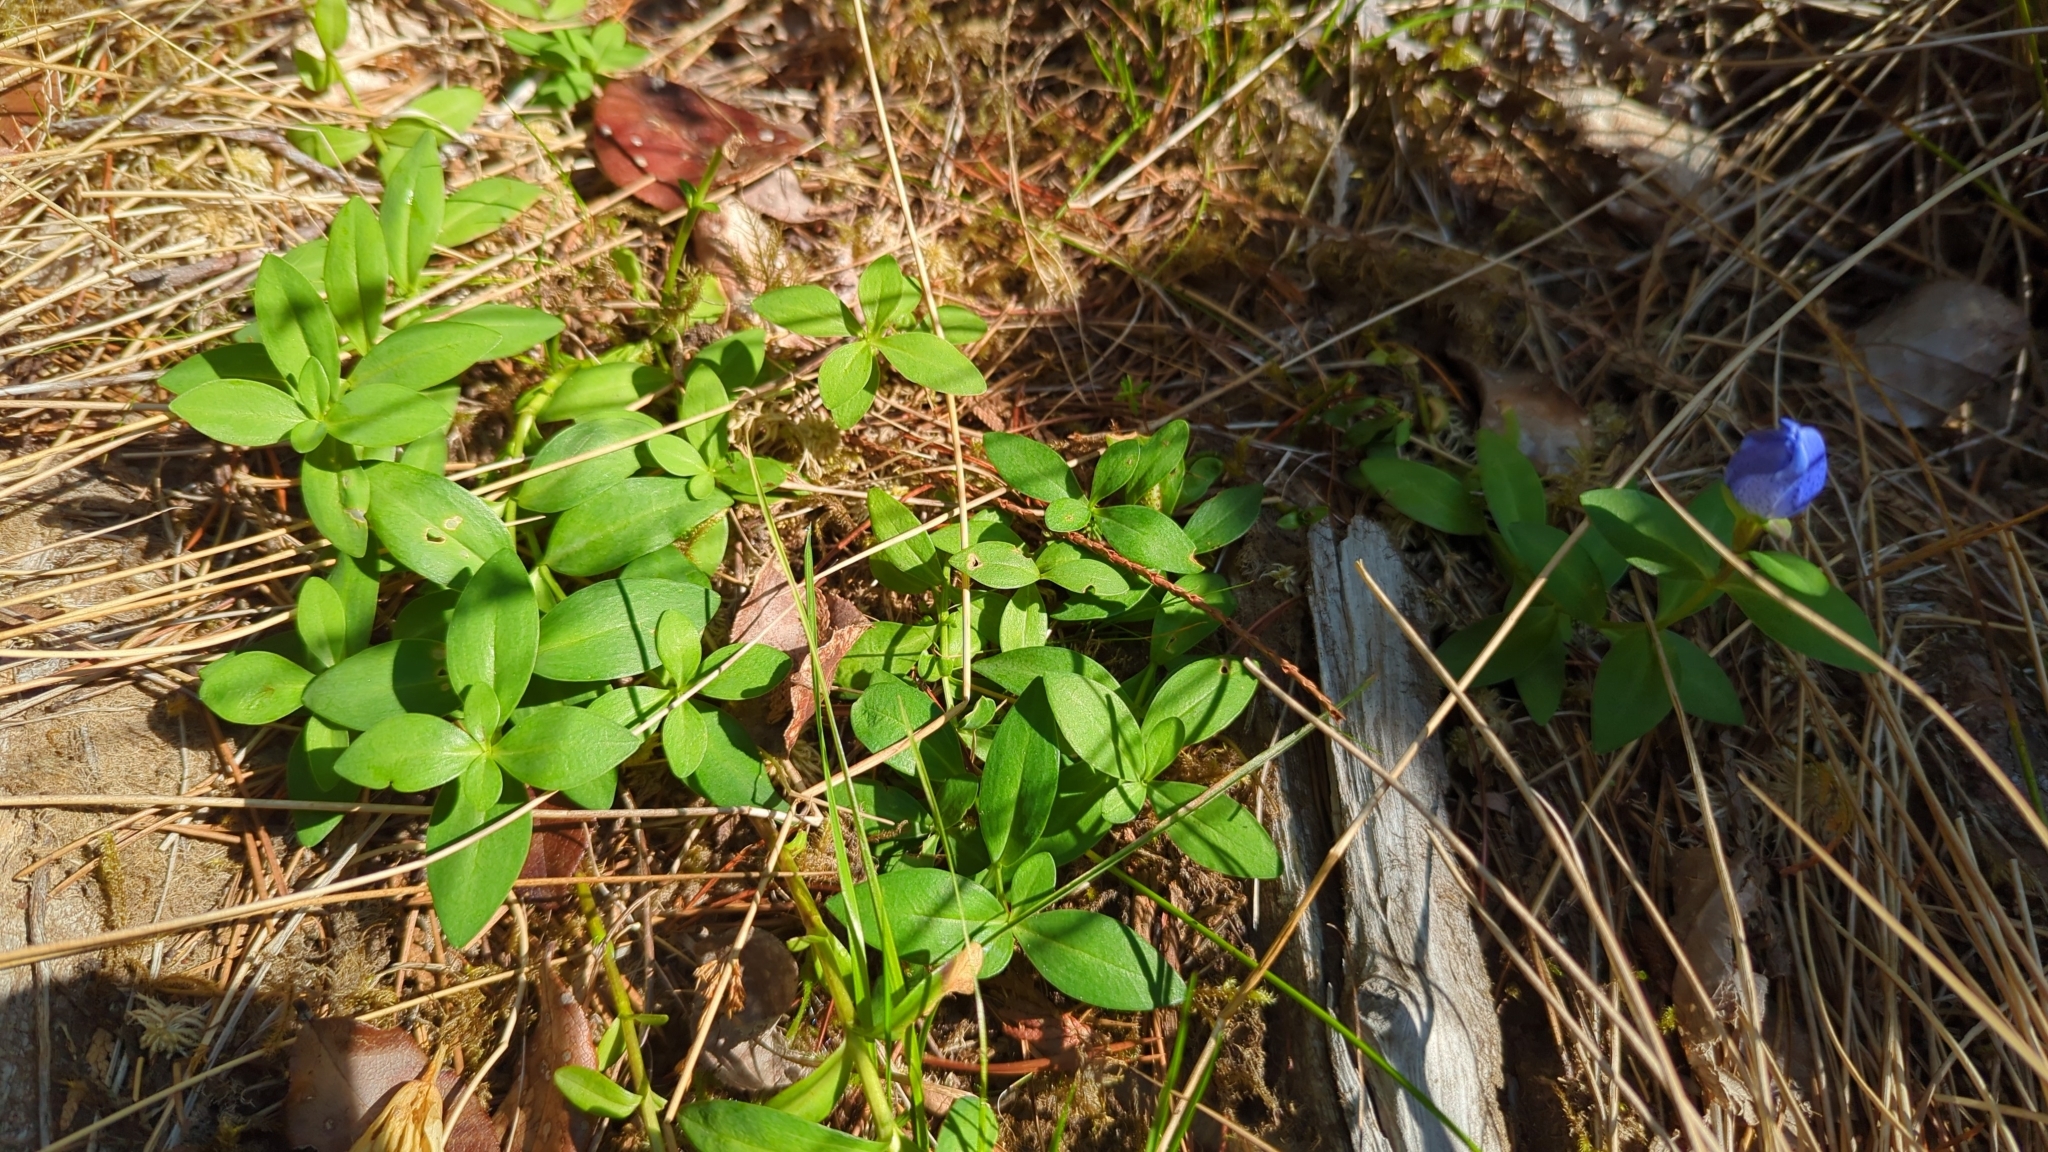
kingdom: Plantae
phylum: Tracheophyta
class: Magnoliopsida
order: Gentianales
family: Gentianaceae
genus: Gentiana
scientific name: Gentiana sceptrum
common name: Pacific gentian
